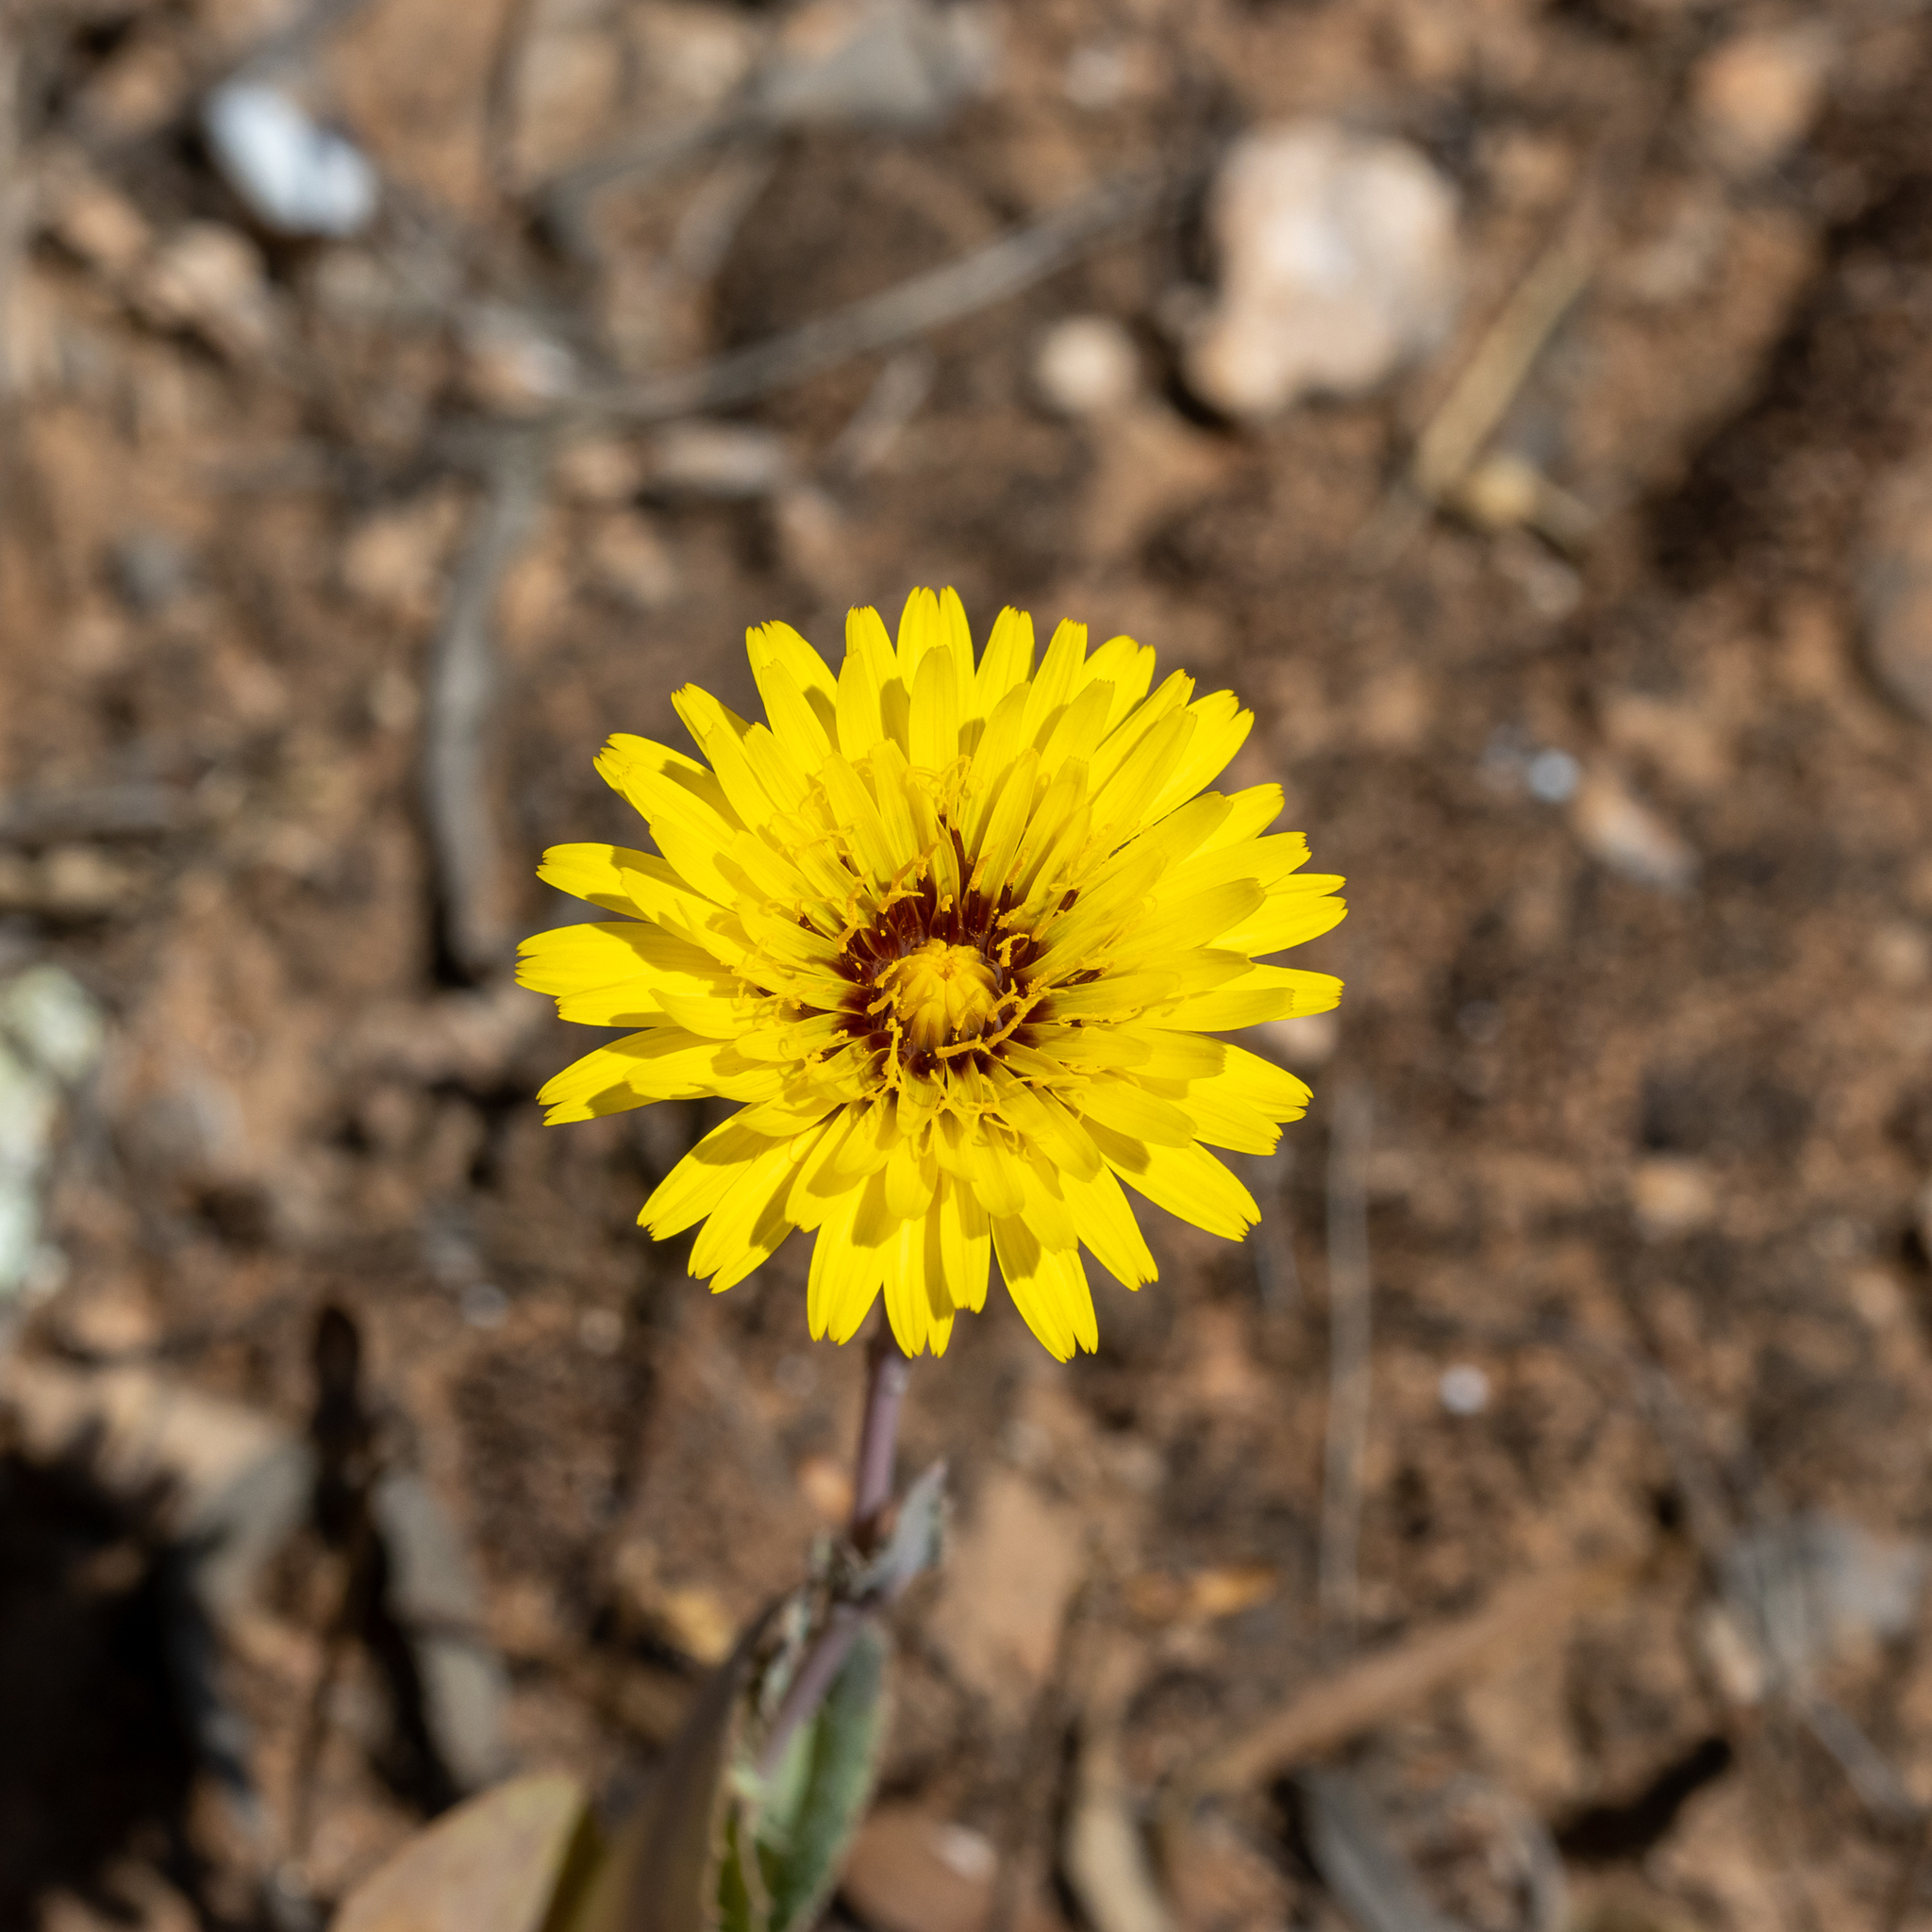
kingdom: Plantae
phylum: Tracheophyta
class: Magnoliopsida
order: Asterales
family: Asteraceae
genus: Reichardia
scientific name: Reichardia tingitana
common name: Reichardia
